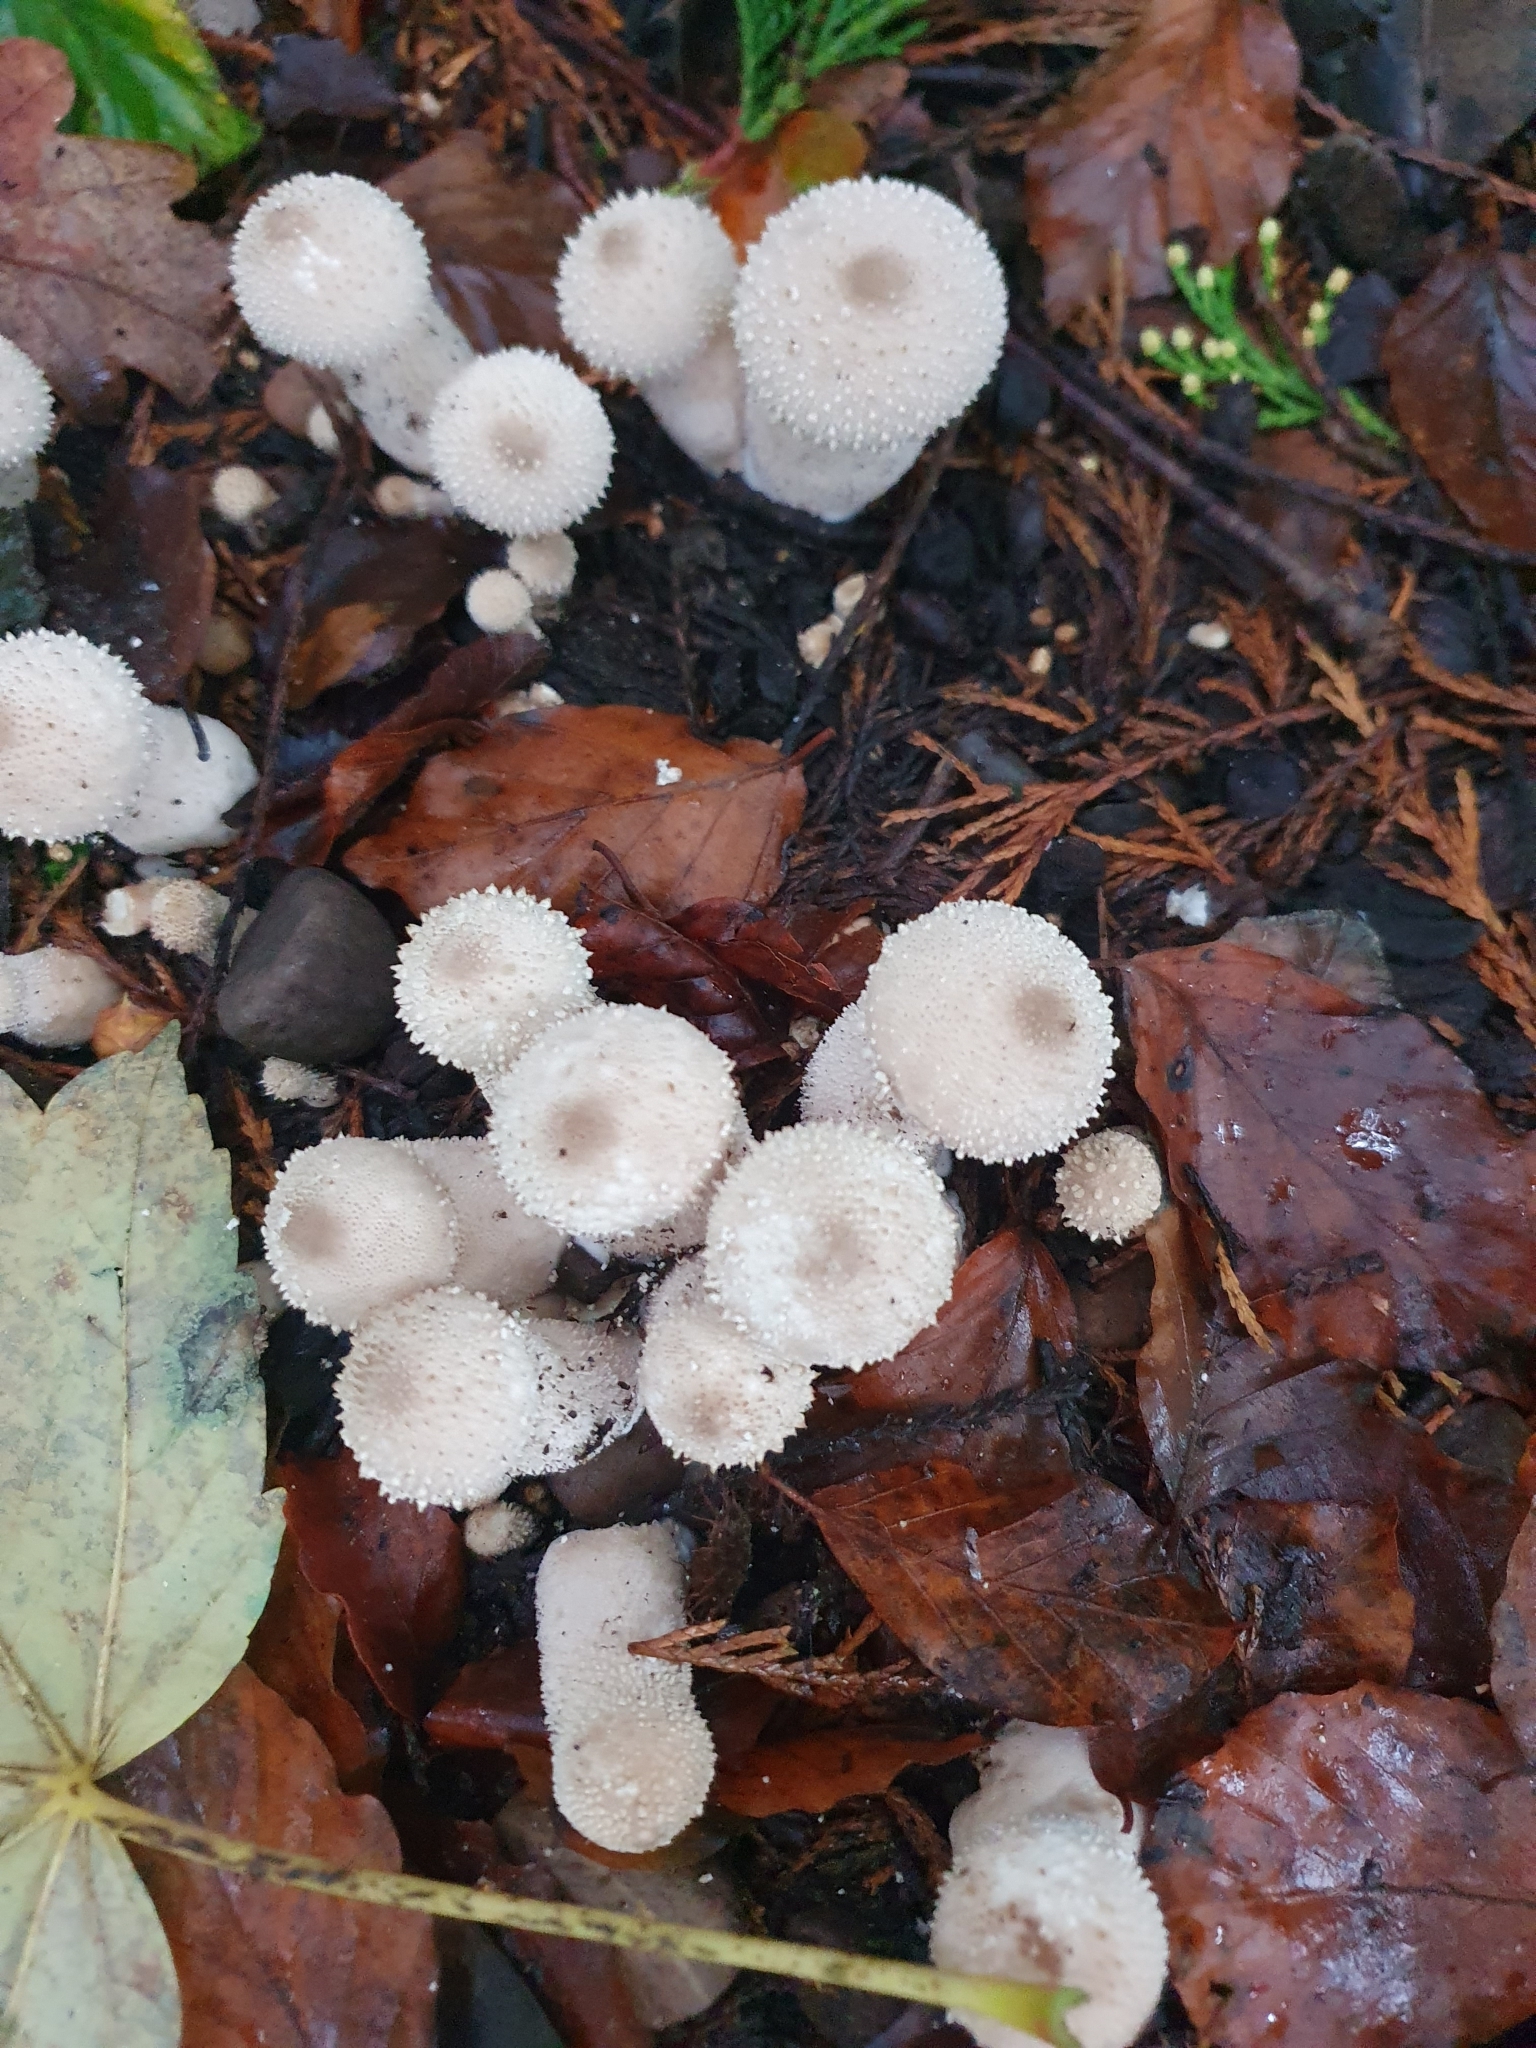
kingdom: Fungi
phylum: Basidiomycota
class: Agaricomycetes
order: Agaricales
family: Lycoperdaceae
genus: Lycoperdon
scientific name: Lycoperdon perlatum
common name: Common puffball
